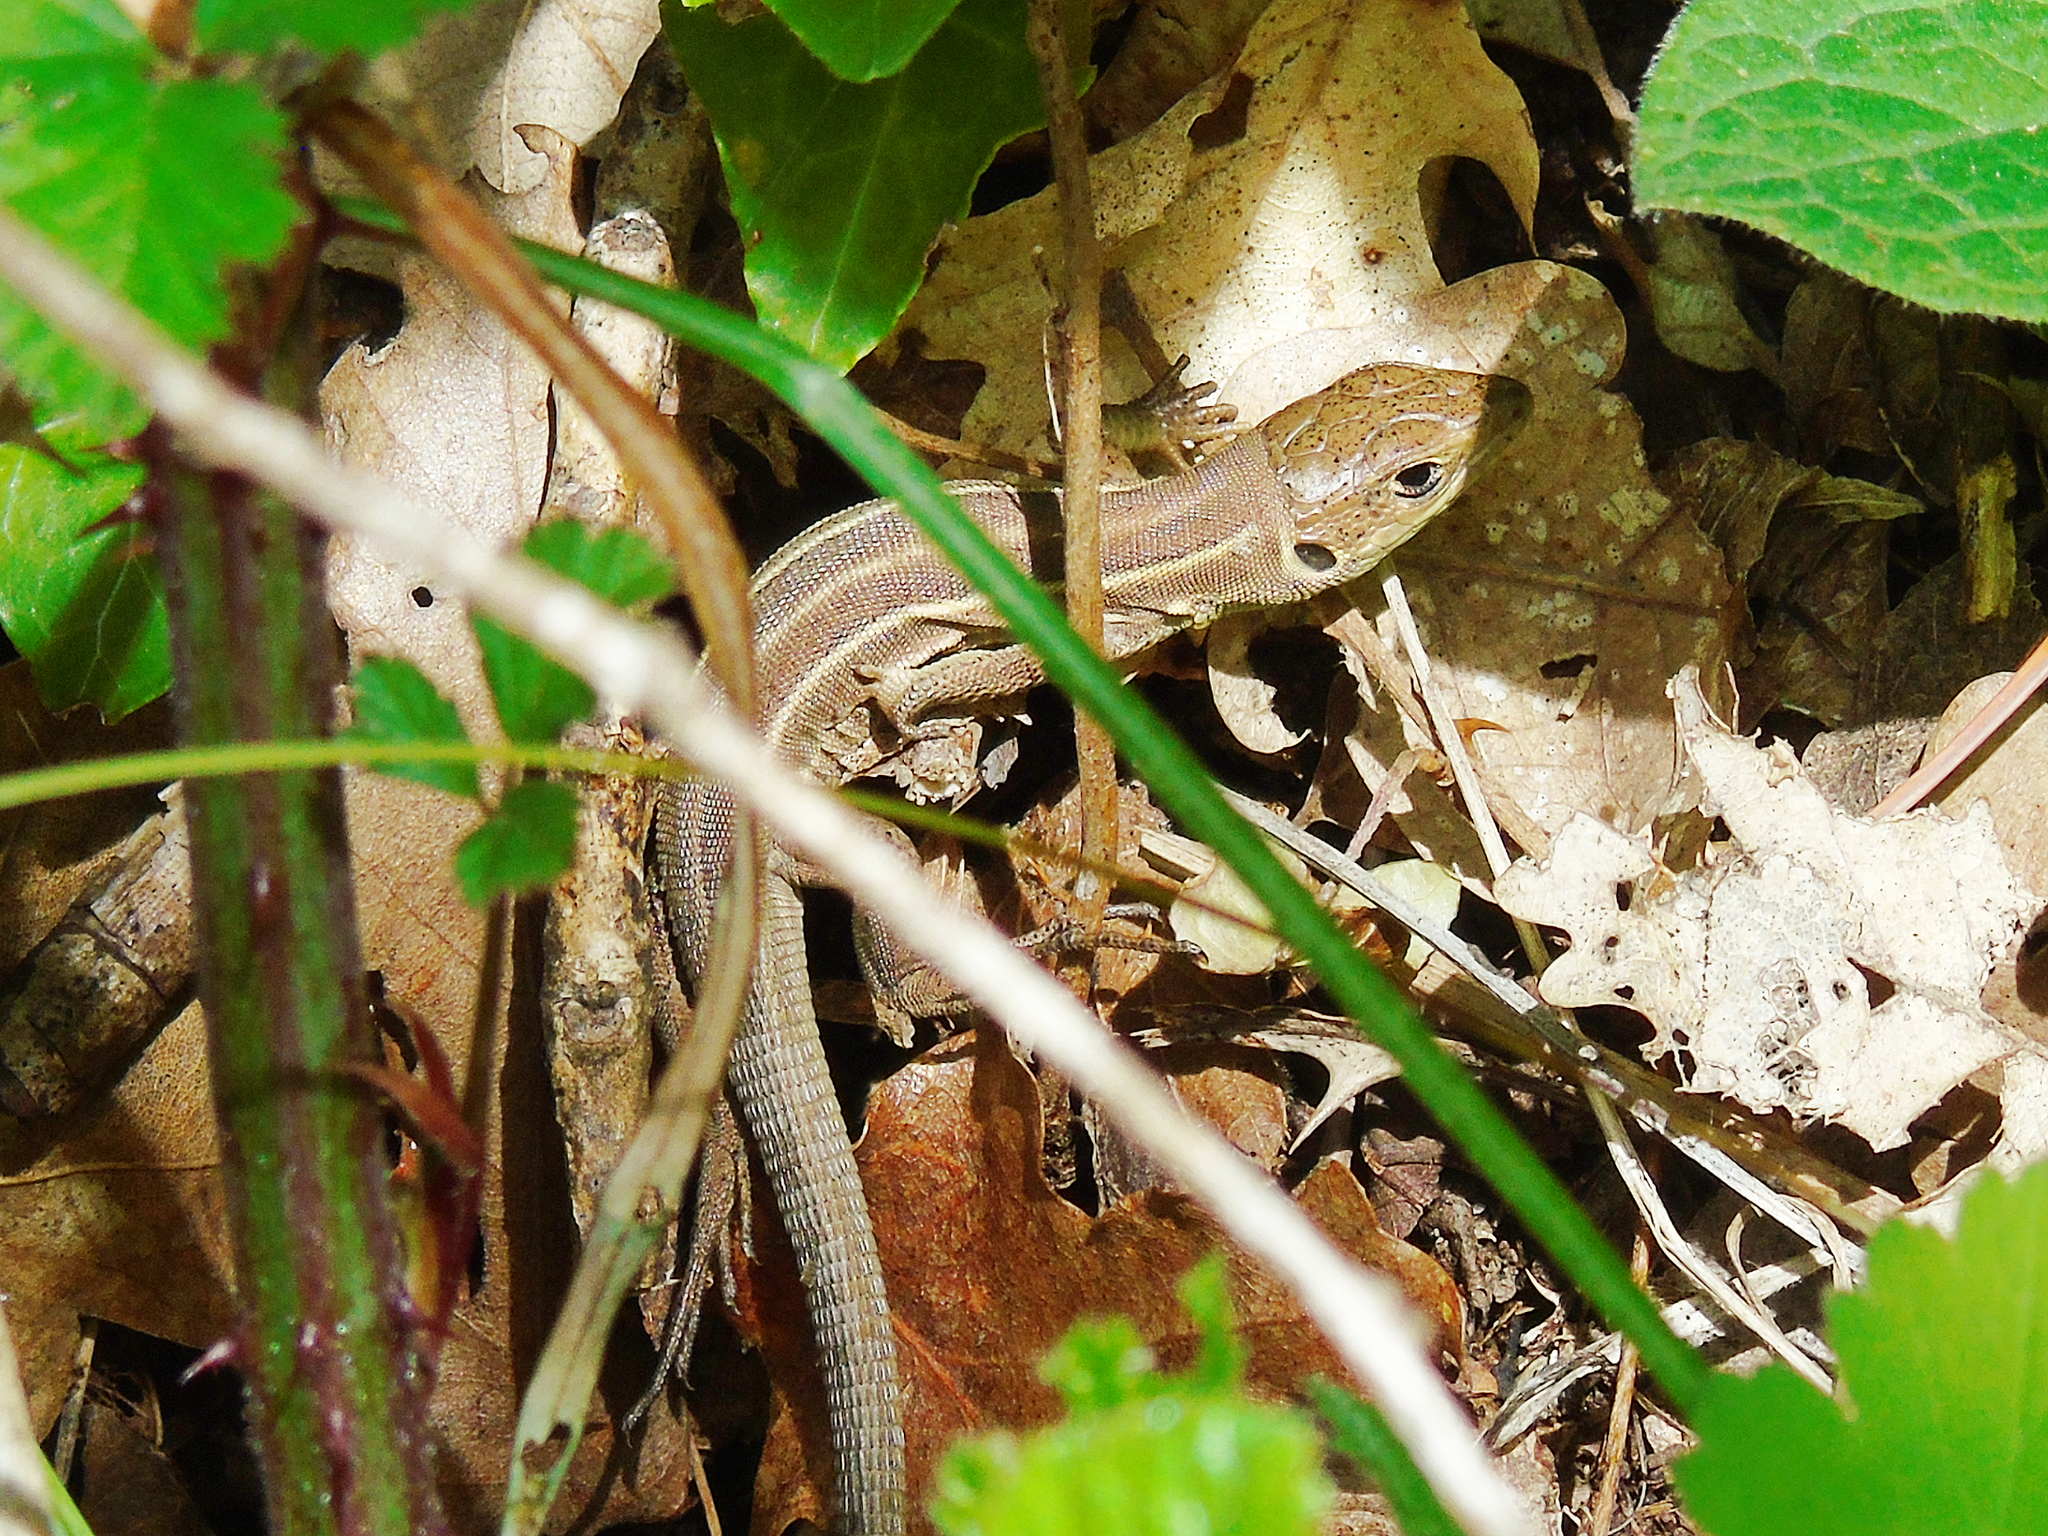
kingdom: Animalia
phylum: Chordata
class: Squamata
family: Lacertidae
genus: Lacerta
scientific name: Lacerta trilineata
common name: Balkan green lizard
